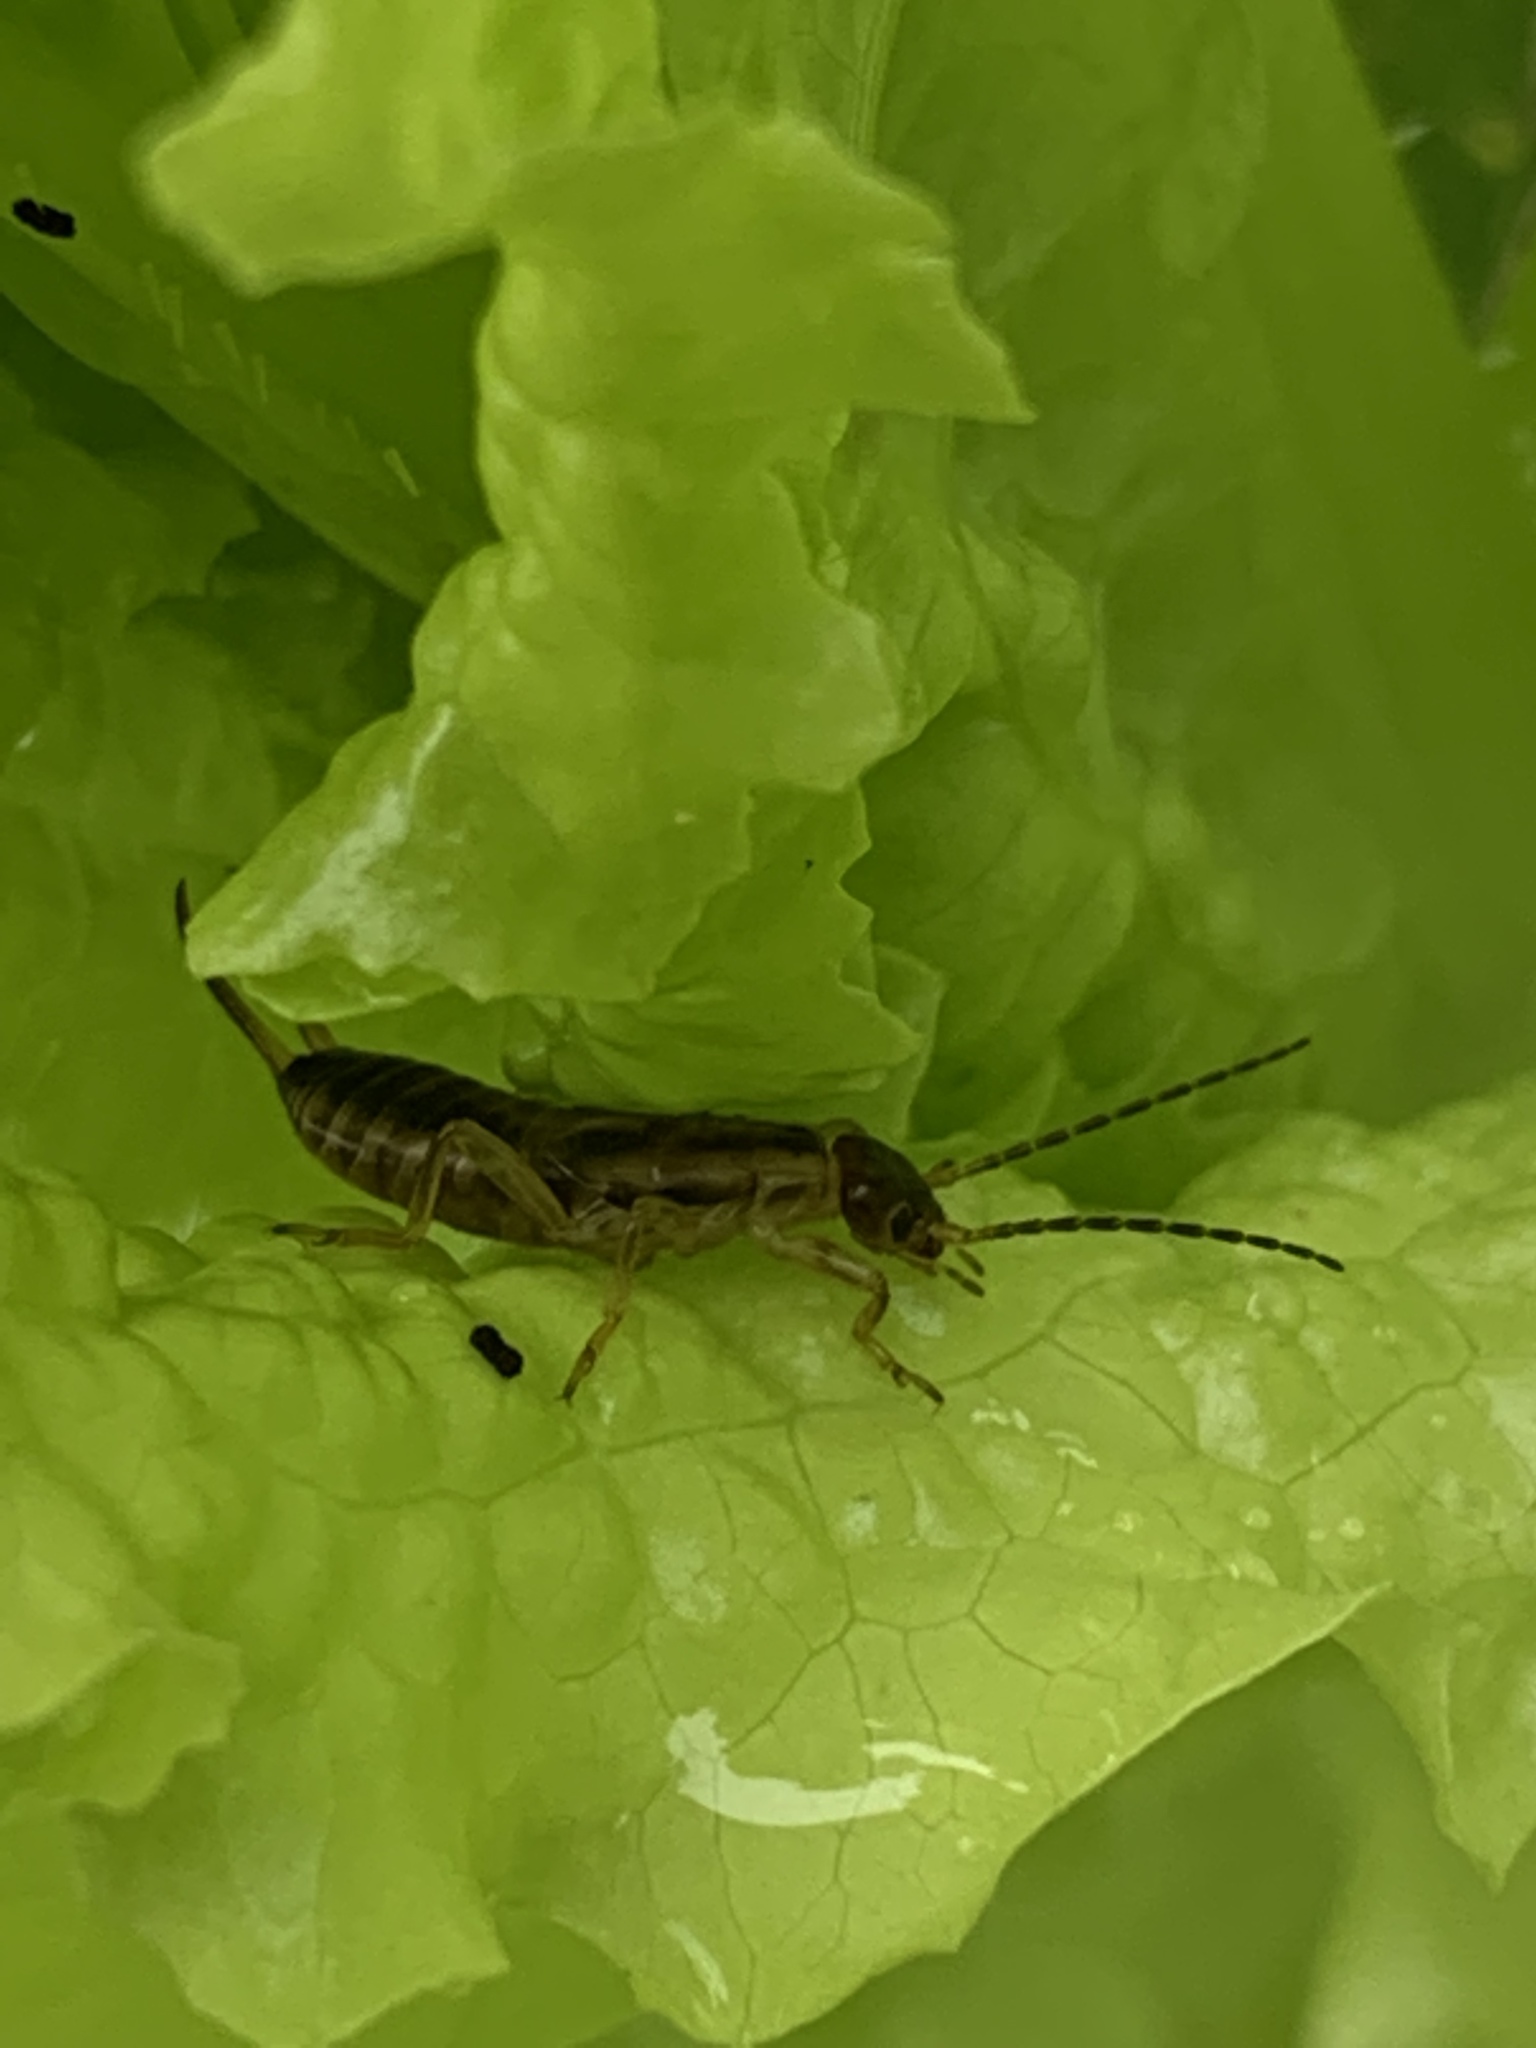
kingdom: Animalia
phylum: Arthropoda
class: Insecta
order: Dermaptera
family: Forficulidae
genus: Forficula
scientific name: Forficula
